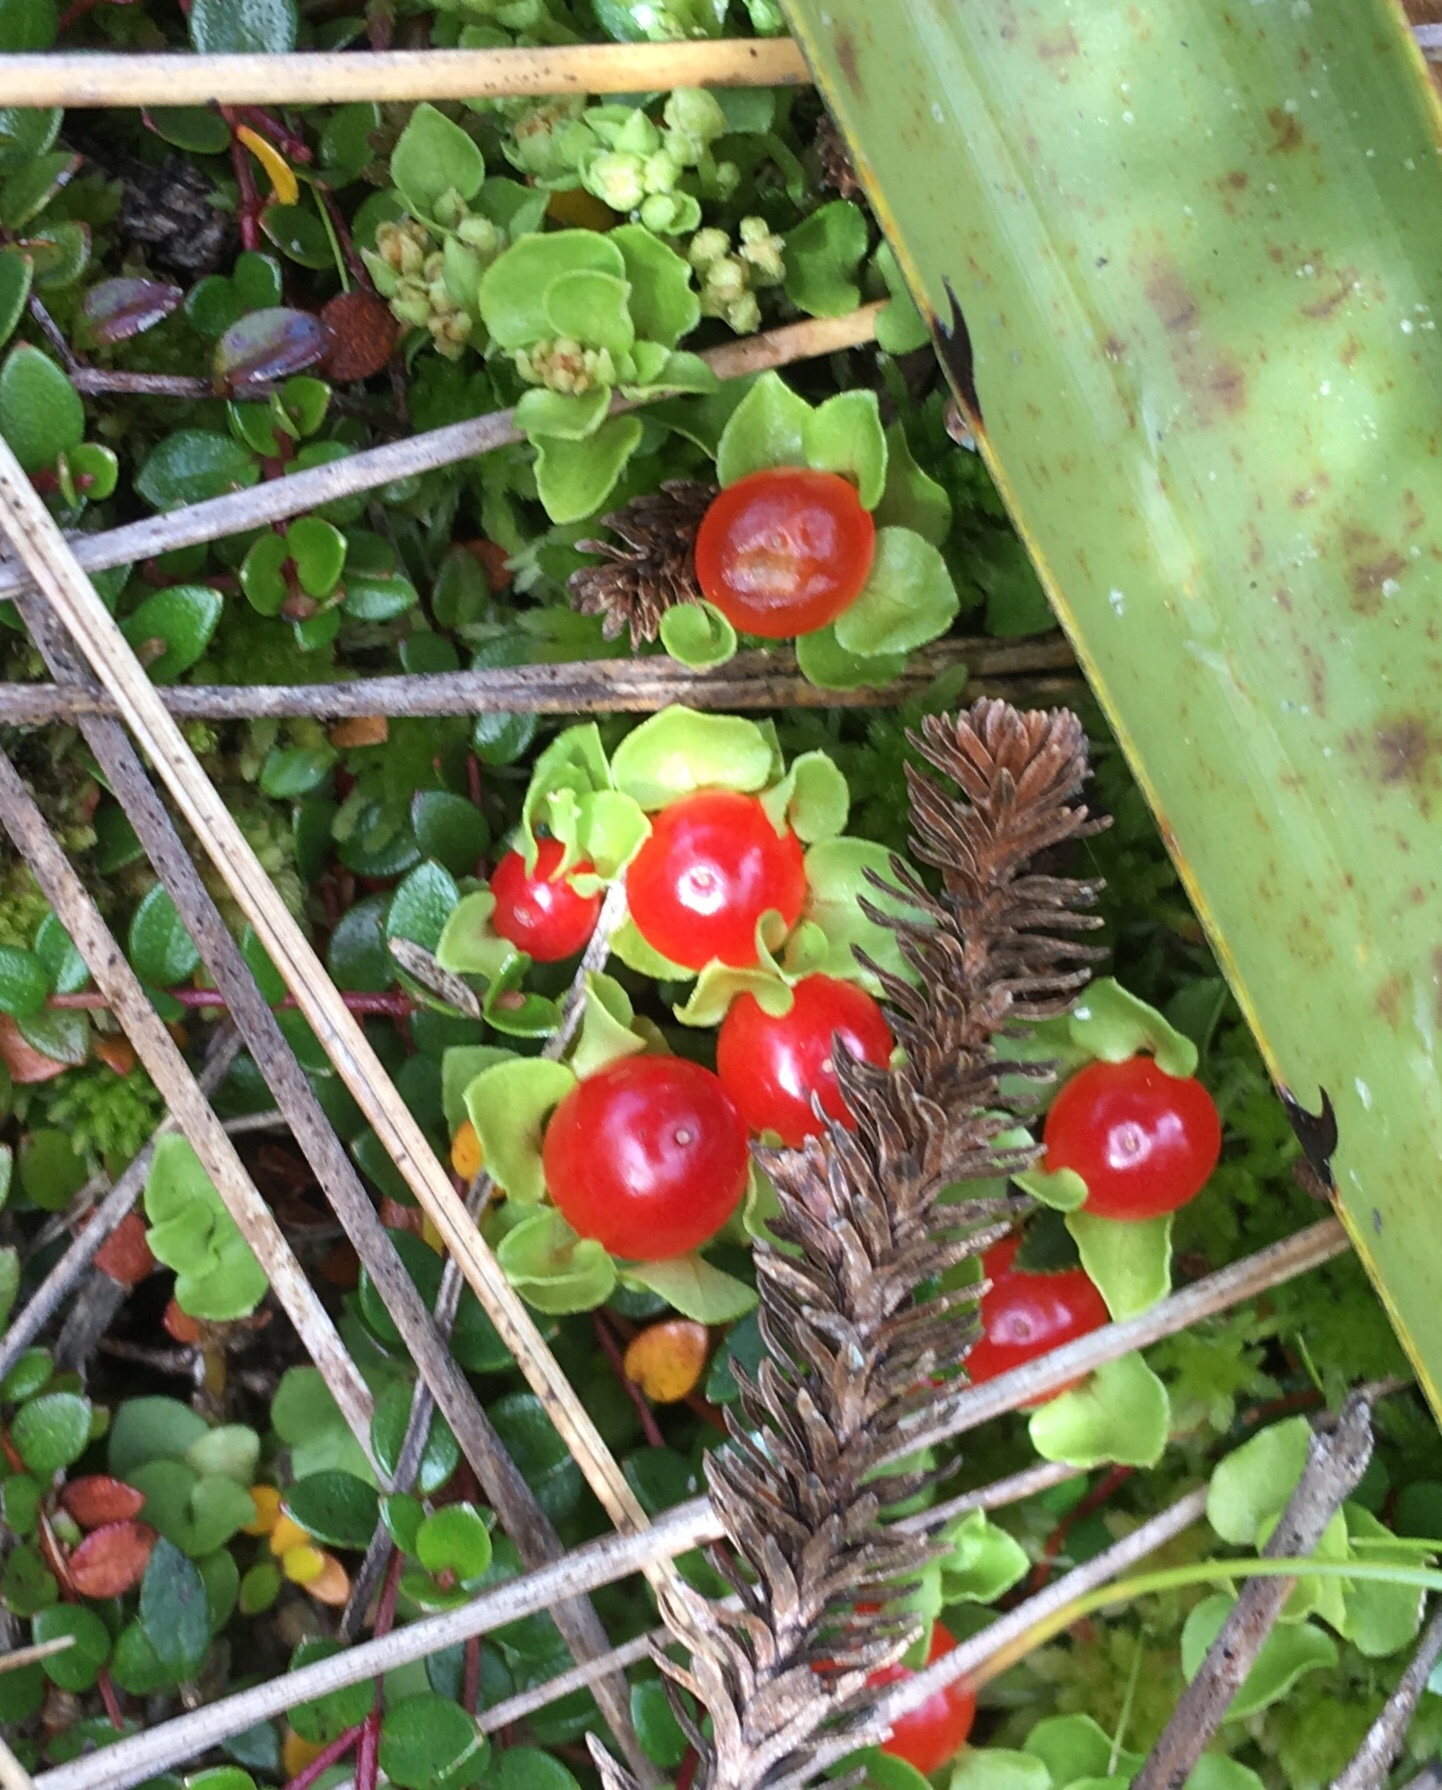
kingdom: Plantae
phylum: Tracheophyta
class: Magnoliopsida
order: Gentianales
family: Rubiaceae
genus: Nertera
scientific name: Nertera granadensis
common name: Beadplant
